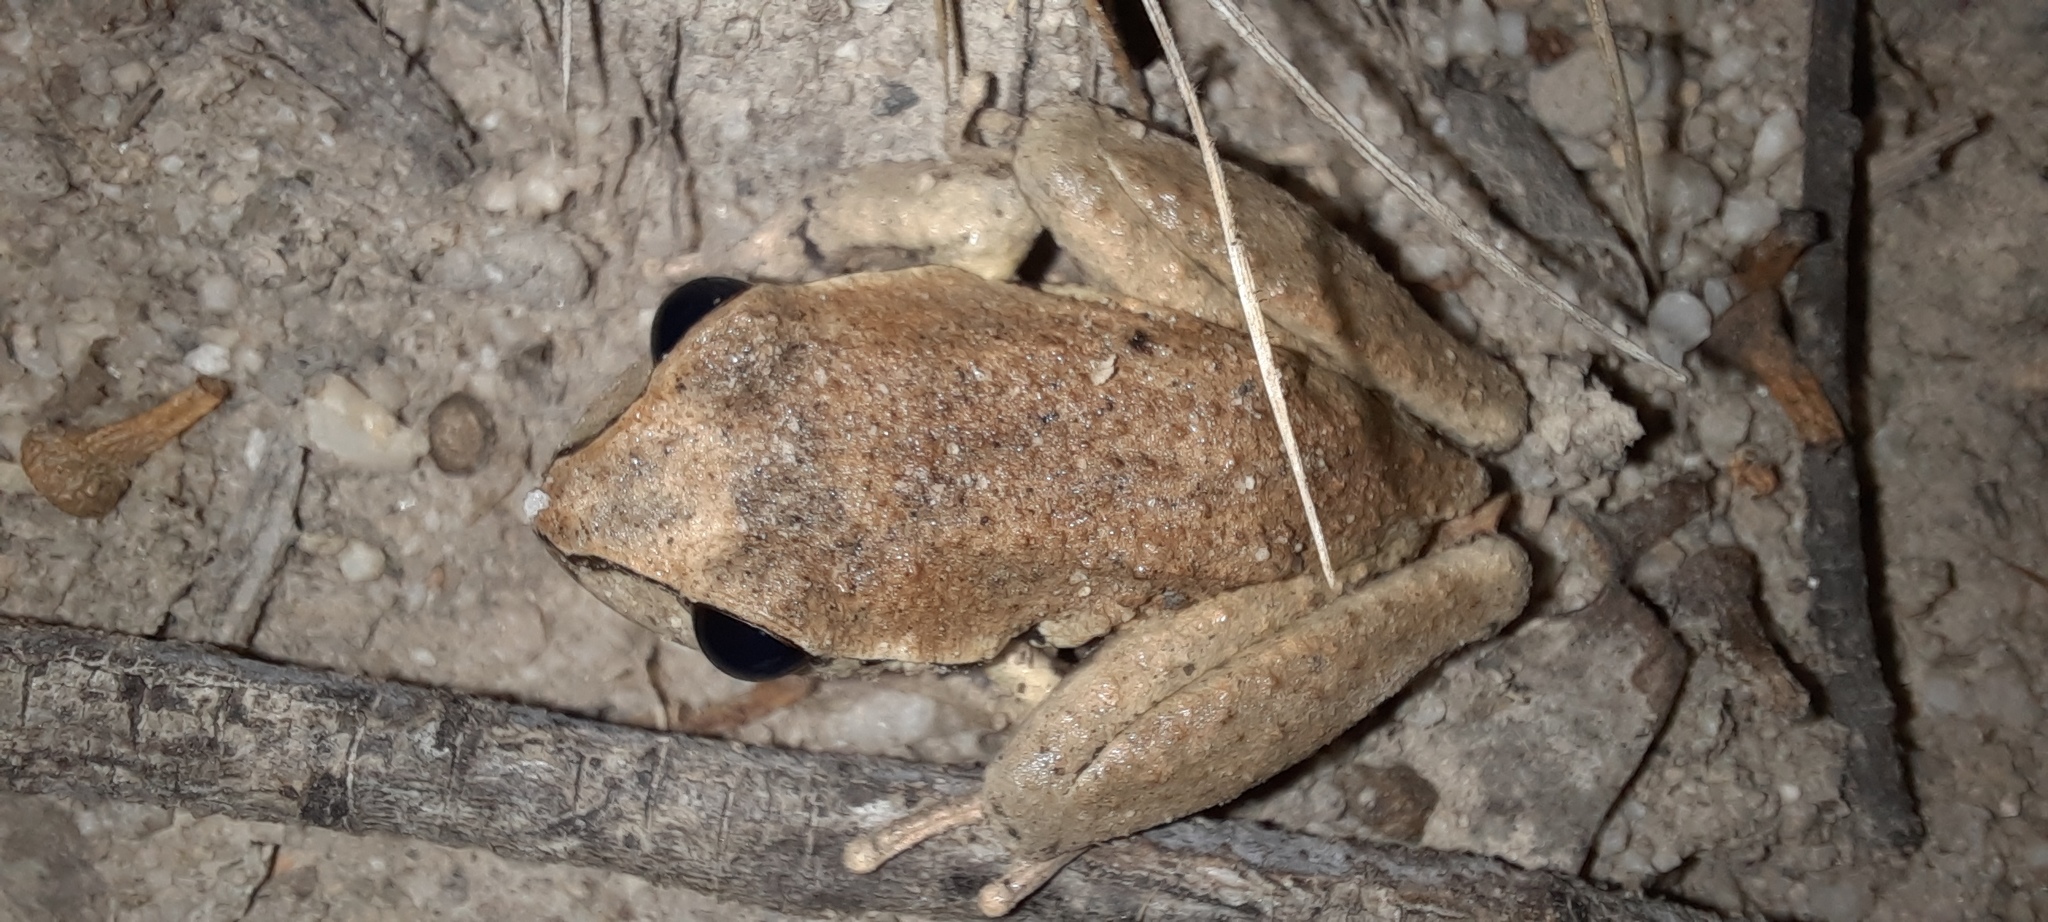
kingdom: Animalia
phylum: Chordata
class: Amphibia
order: Anura
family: Pelodryadidae
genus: Ranoidea
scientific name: Ranoidea lesueurii
